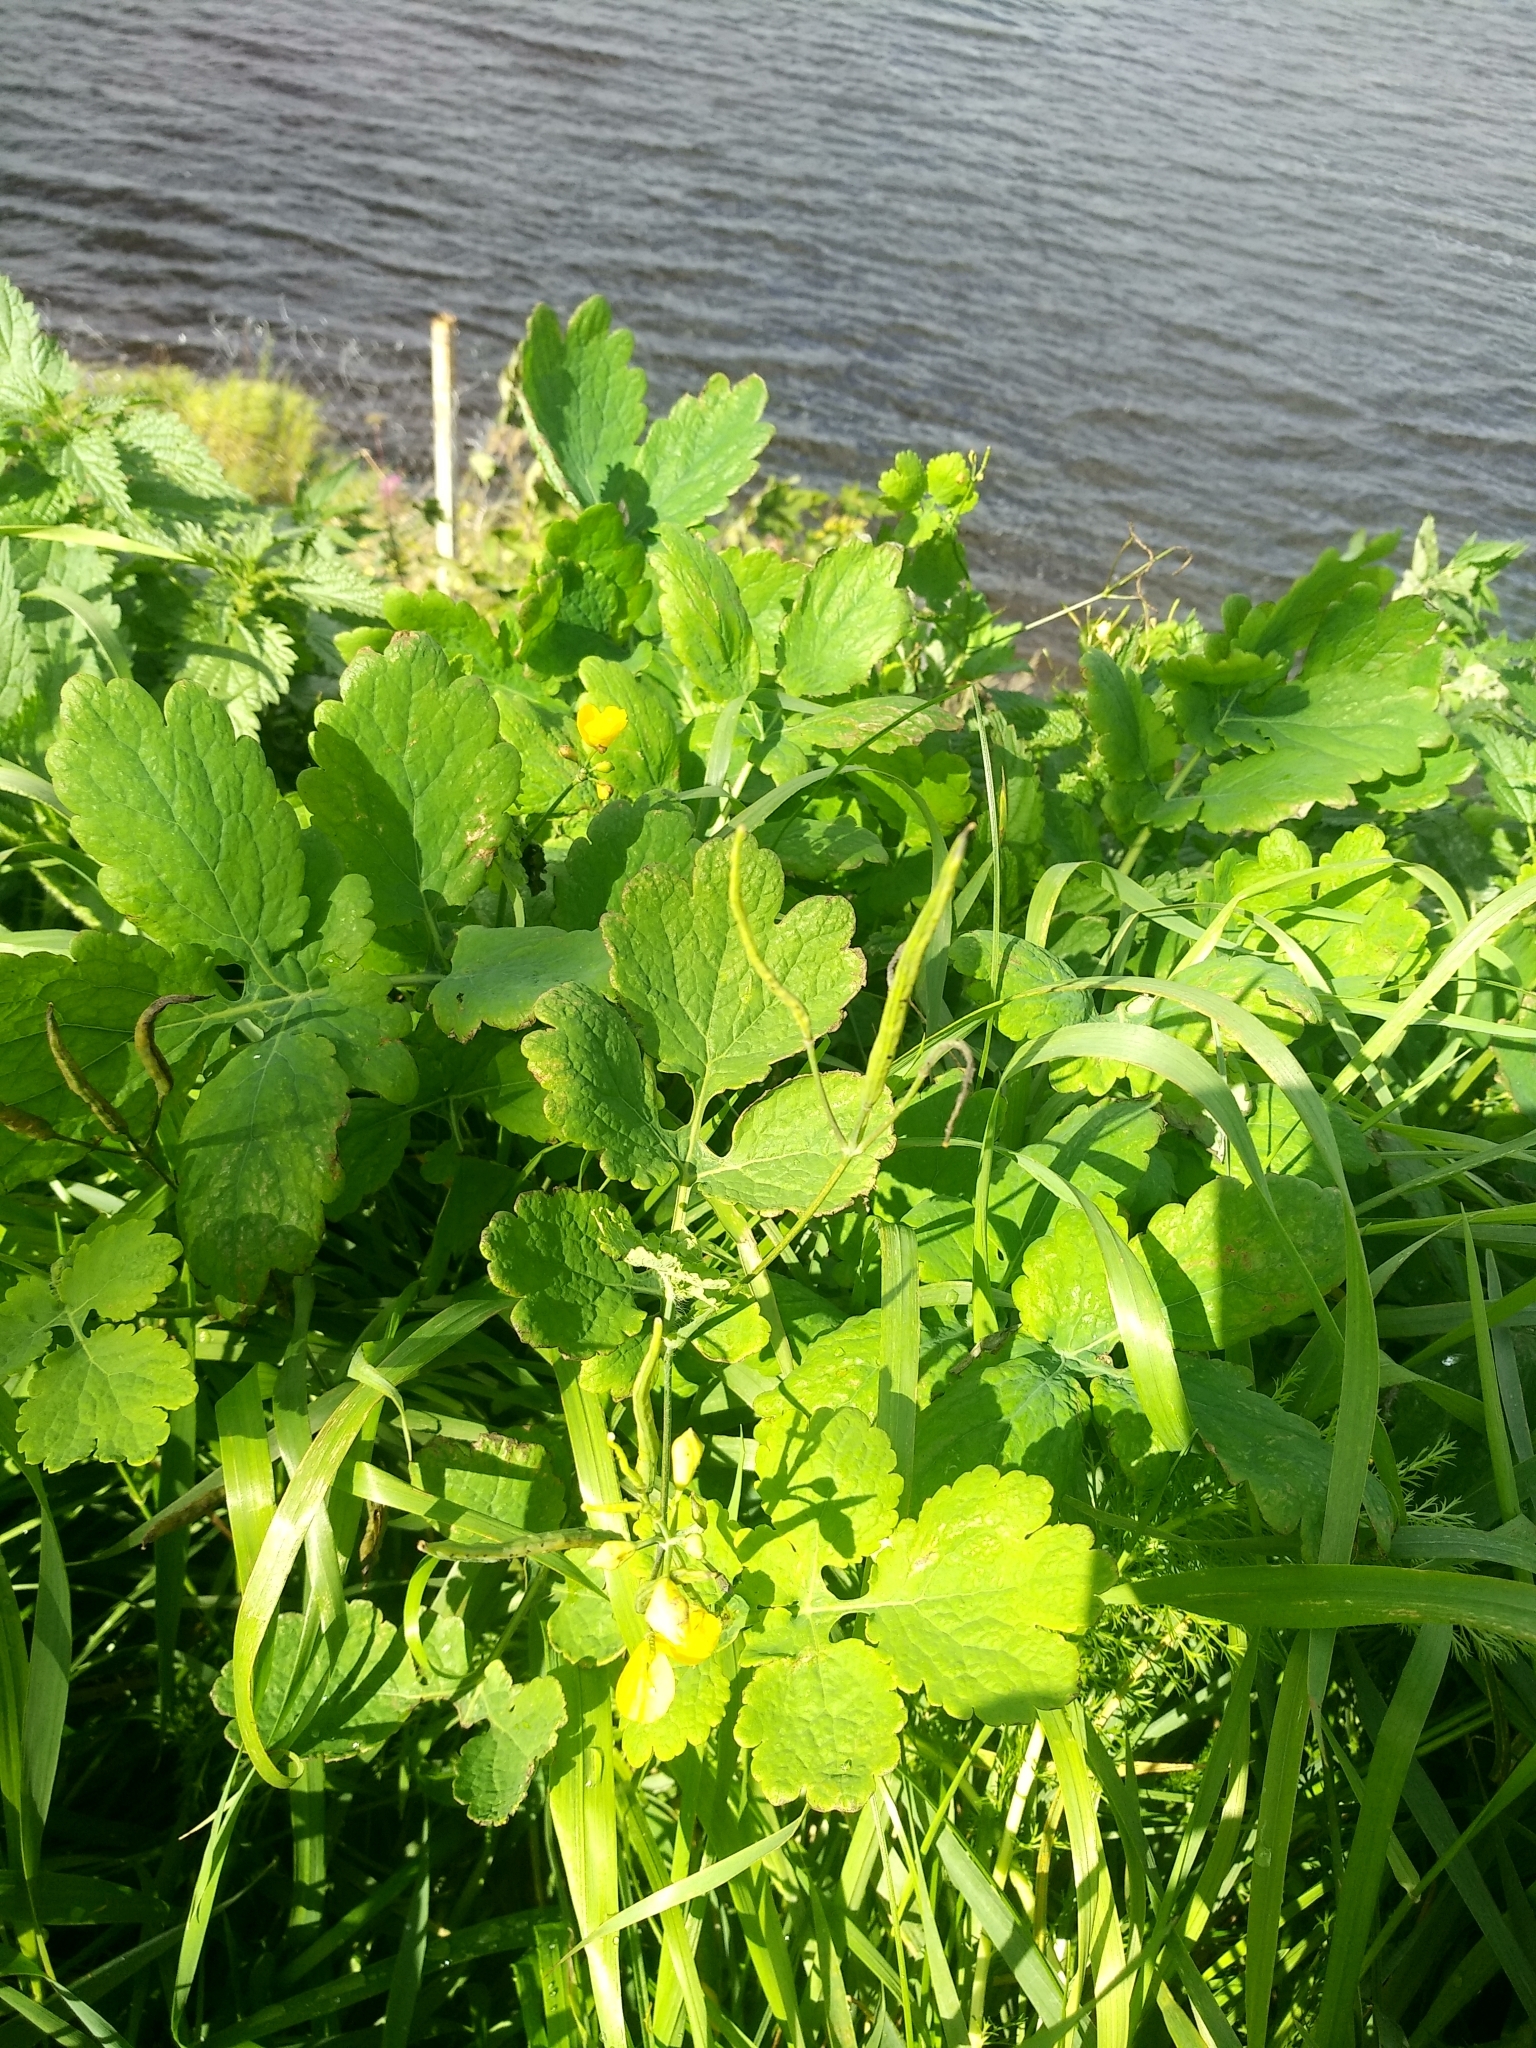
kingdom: Plantae
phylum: Tracheophyta
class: Magnoliopsida
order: Ranunculales
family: Papaveraceae
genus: Chelidonium
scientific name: Chelidonium majus
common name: Greater celandine
